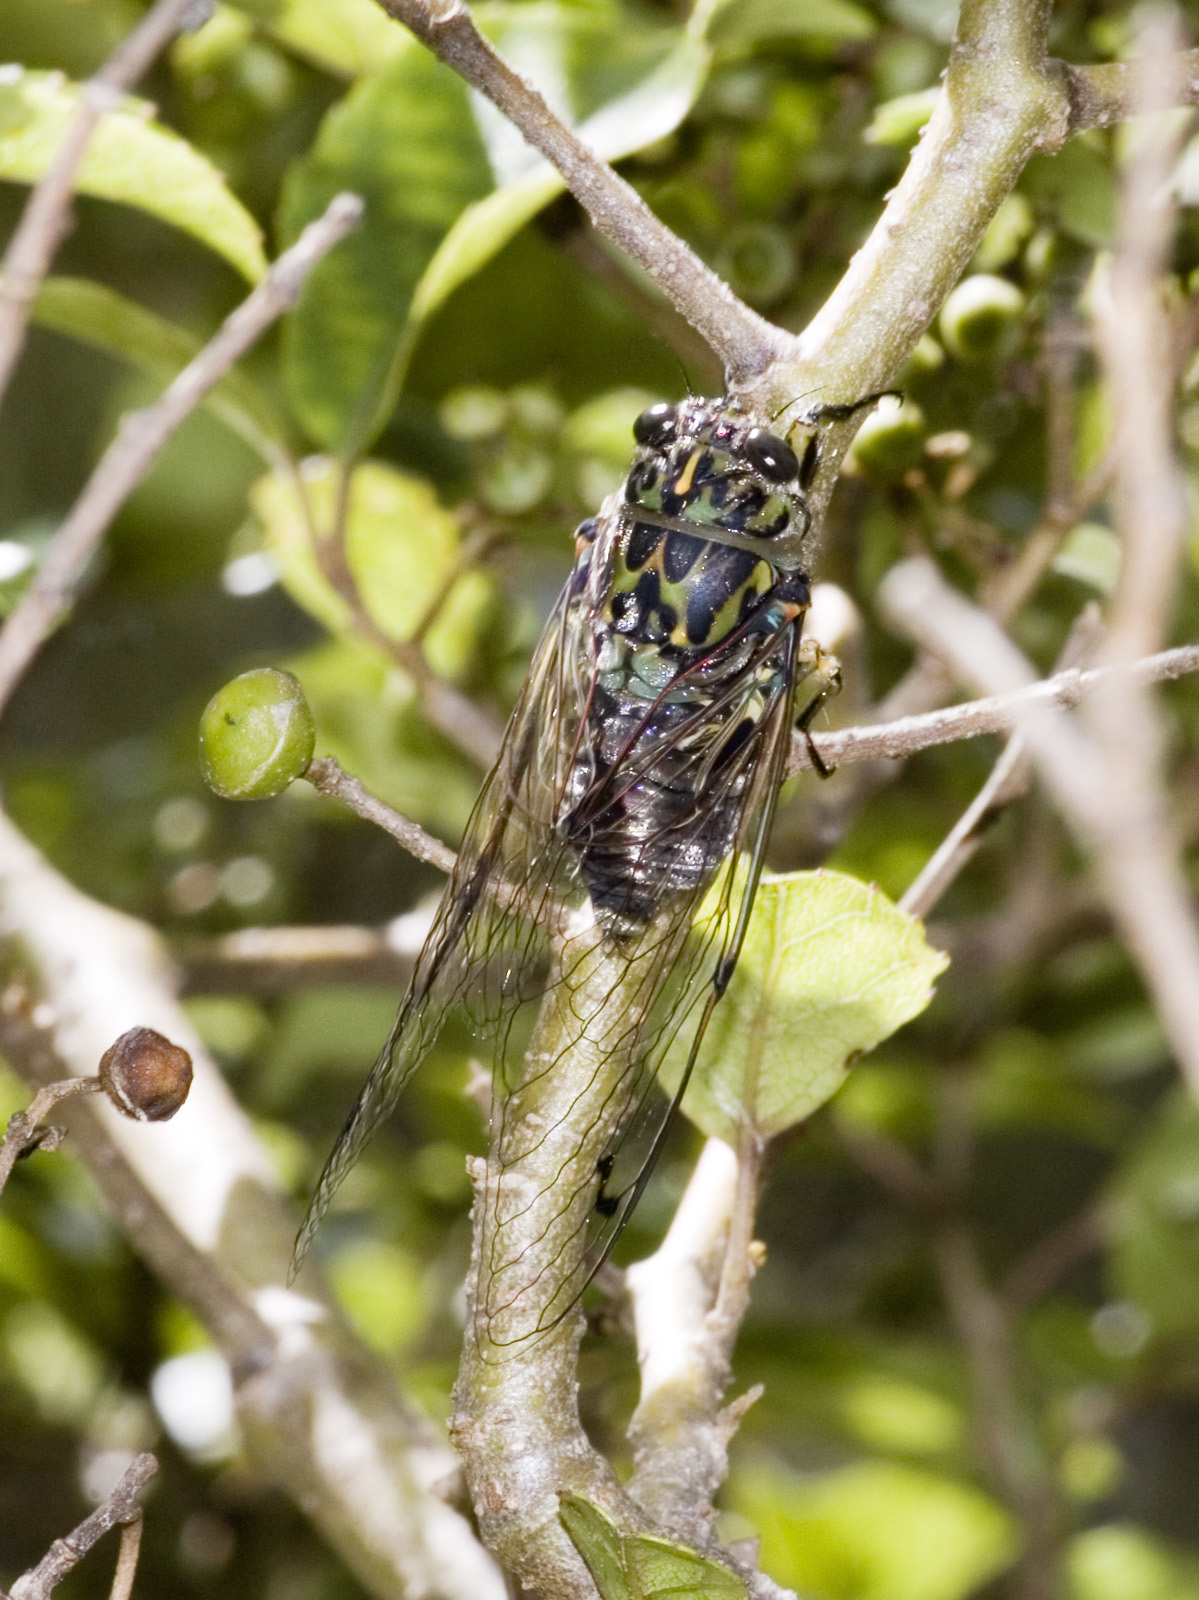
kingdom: Animalia
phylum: Arthropoda
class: Insecta
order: Hemiptera
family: Cicadidae
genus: Amphipsalta
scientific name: Amphipsalta zelandica
